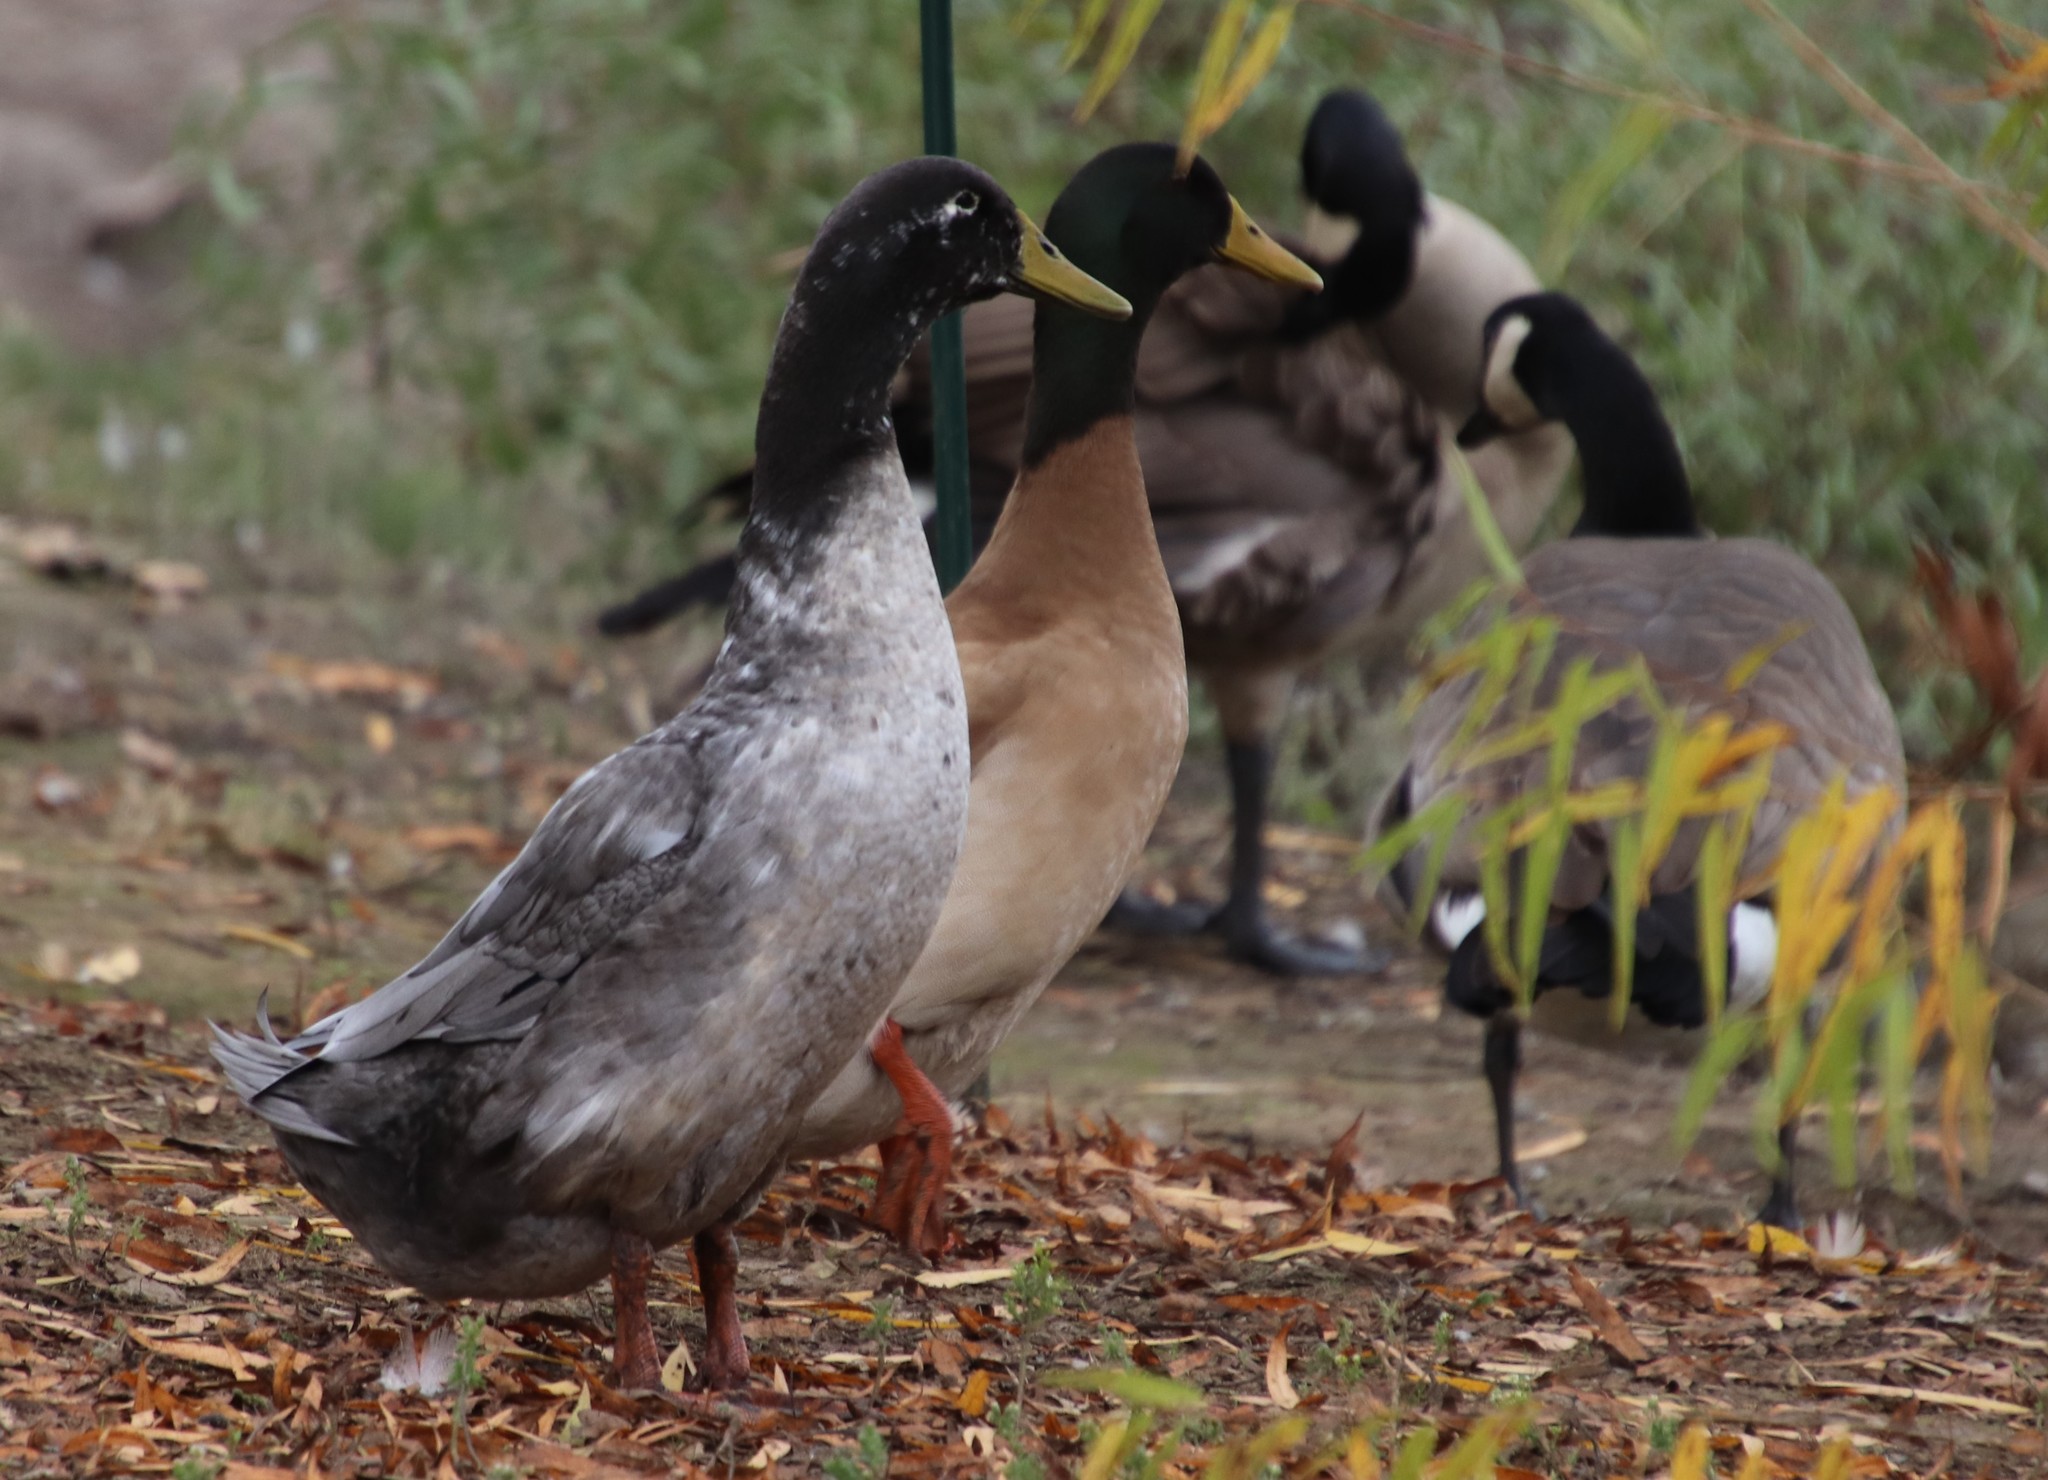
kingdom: Animalia
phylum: Chordata
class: Aves
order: Anseriformes
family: Anatidae
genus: Anas
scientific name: Anas platyrhynchos
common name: Mallard
